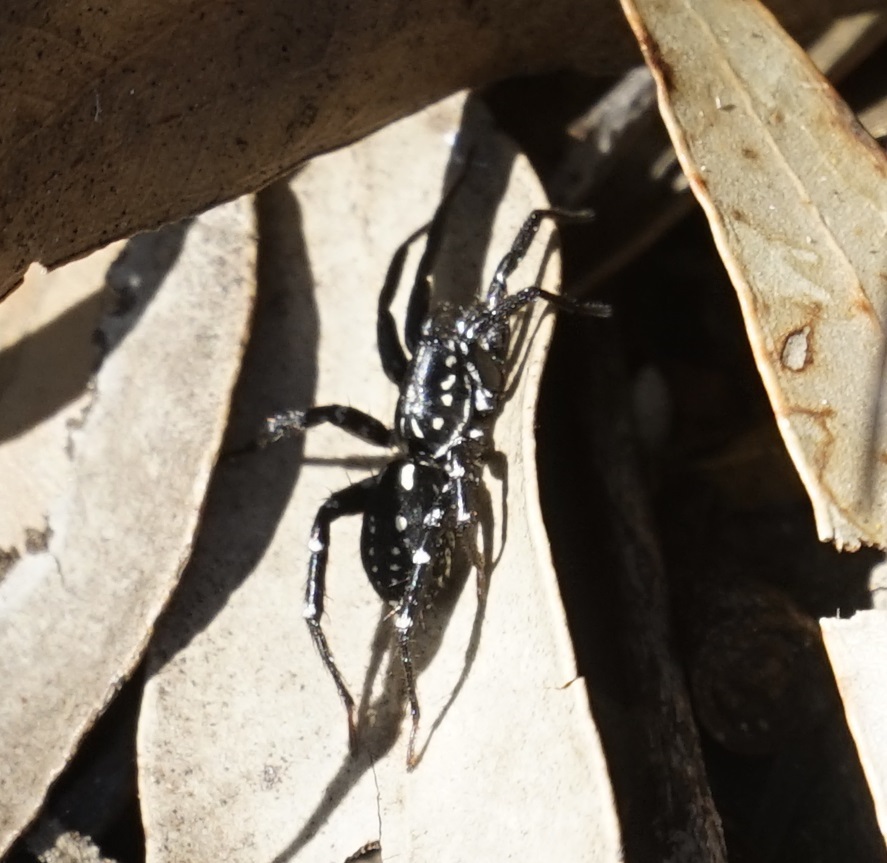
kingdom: Animalia
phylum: Arthropoda
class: Arachnida
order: Araneae
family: Corinnidae
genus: Nyssus
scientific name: Nyssus albopunctatus
